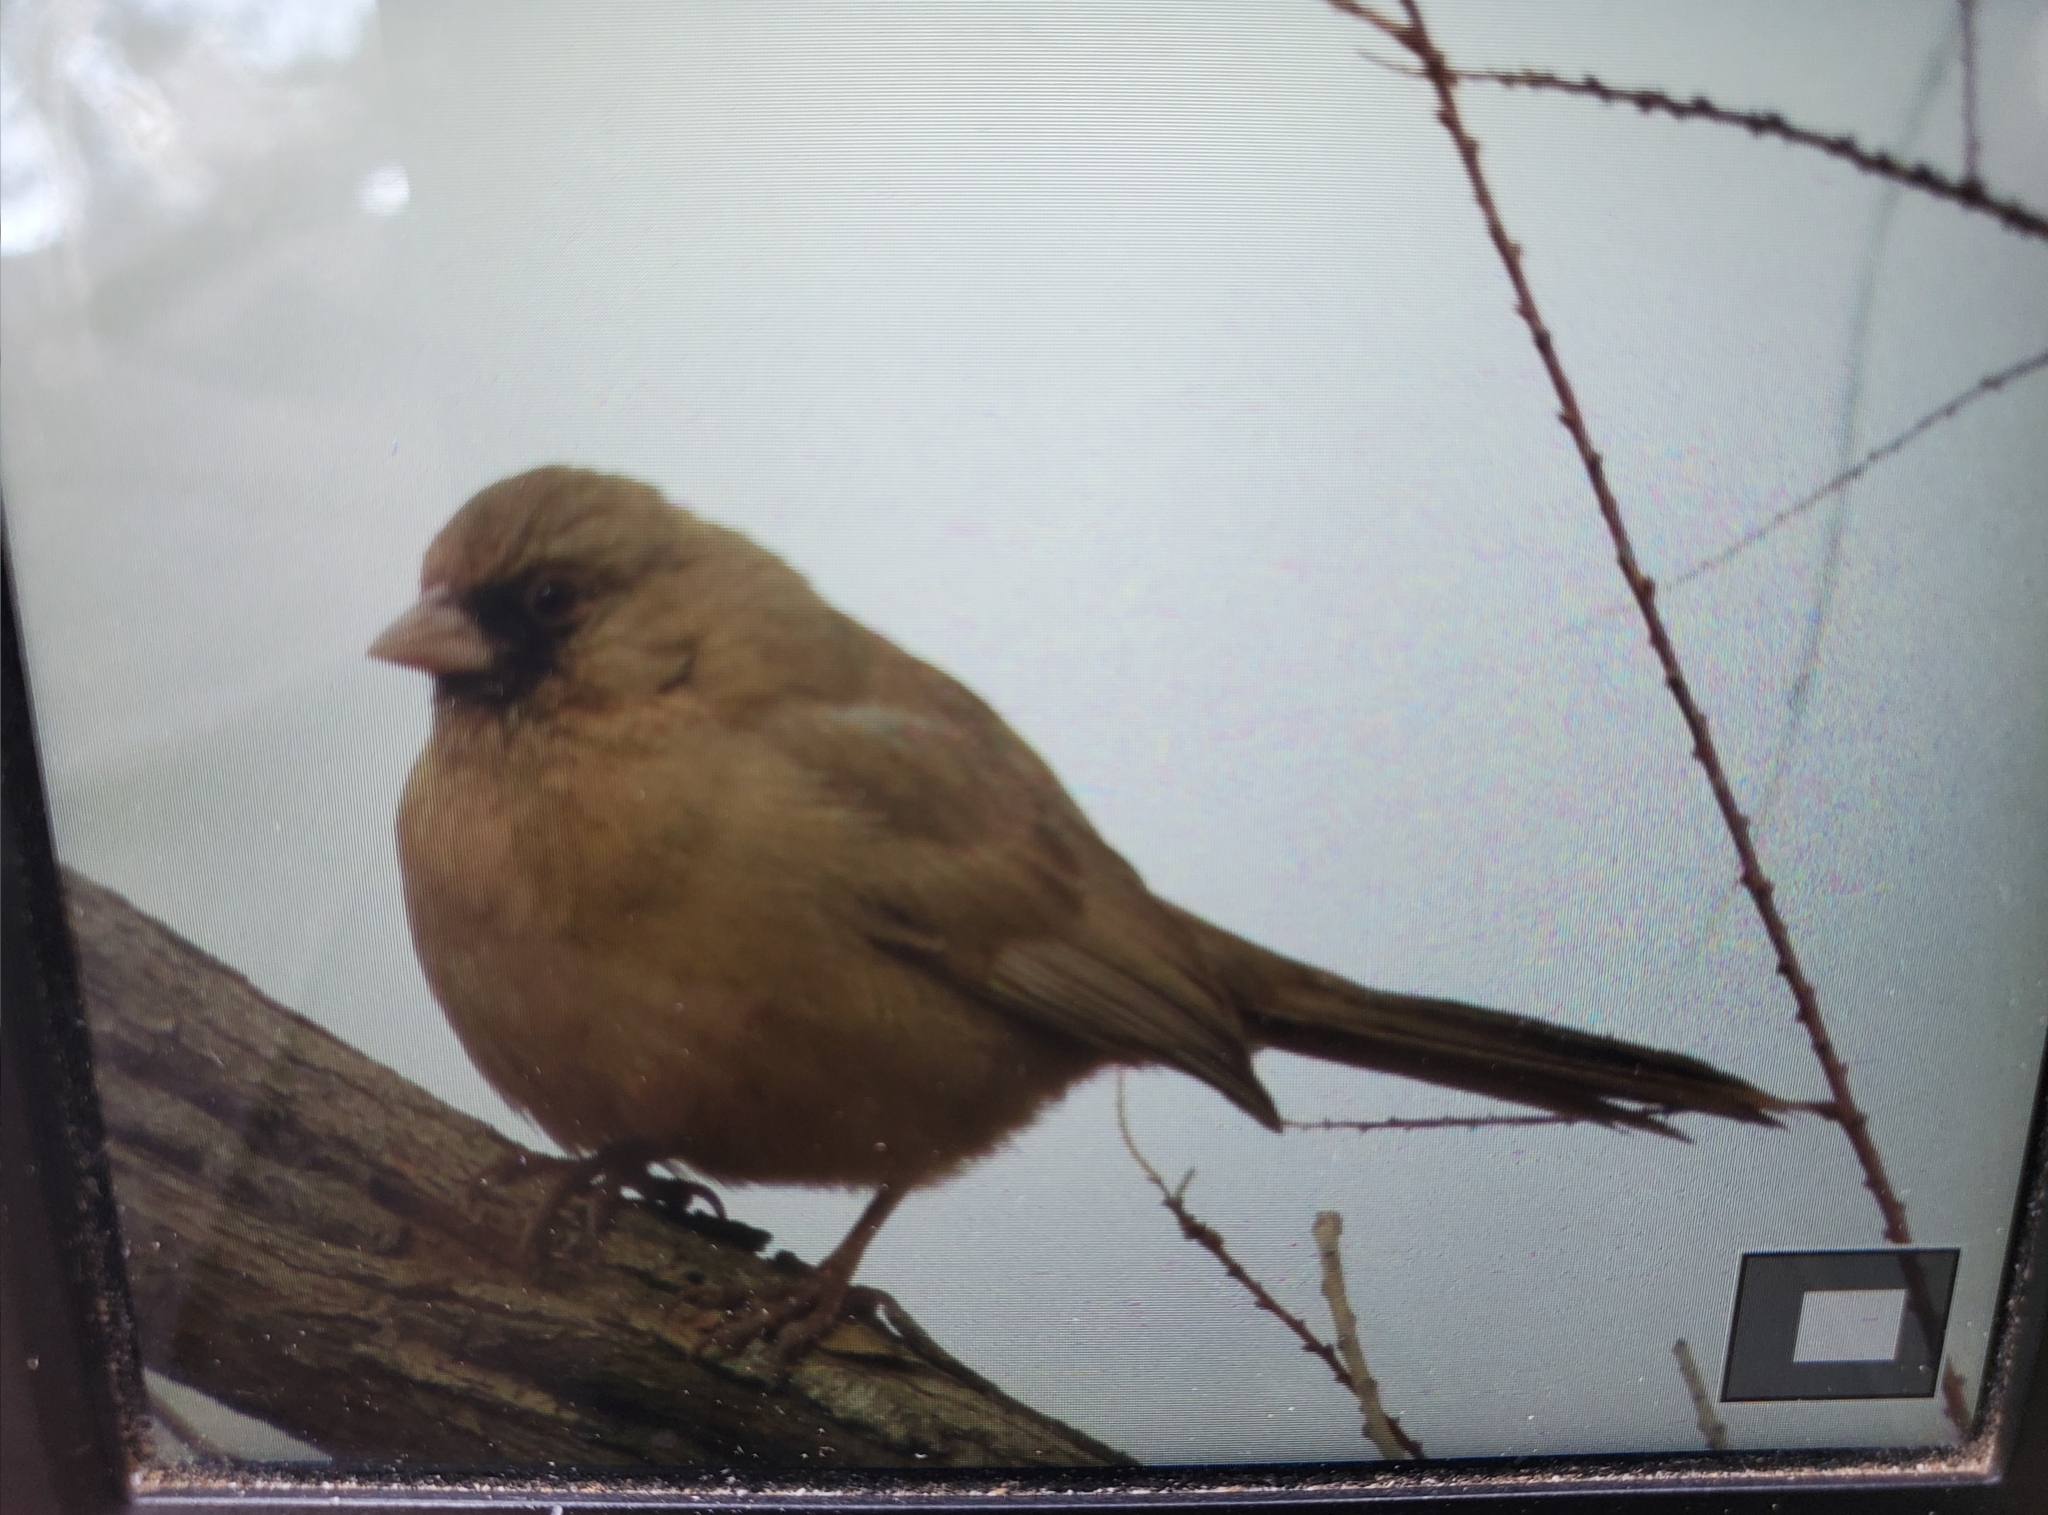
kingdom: Animalia
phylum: Chordata
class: Aves
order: Passeriformes
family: Passerellidae
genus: Melozone
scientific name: Melozone aberti
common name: Abert's towhee
